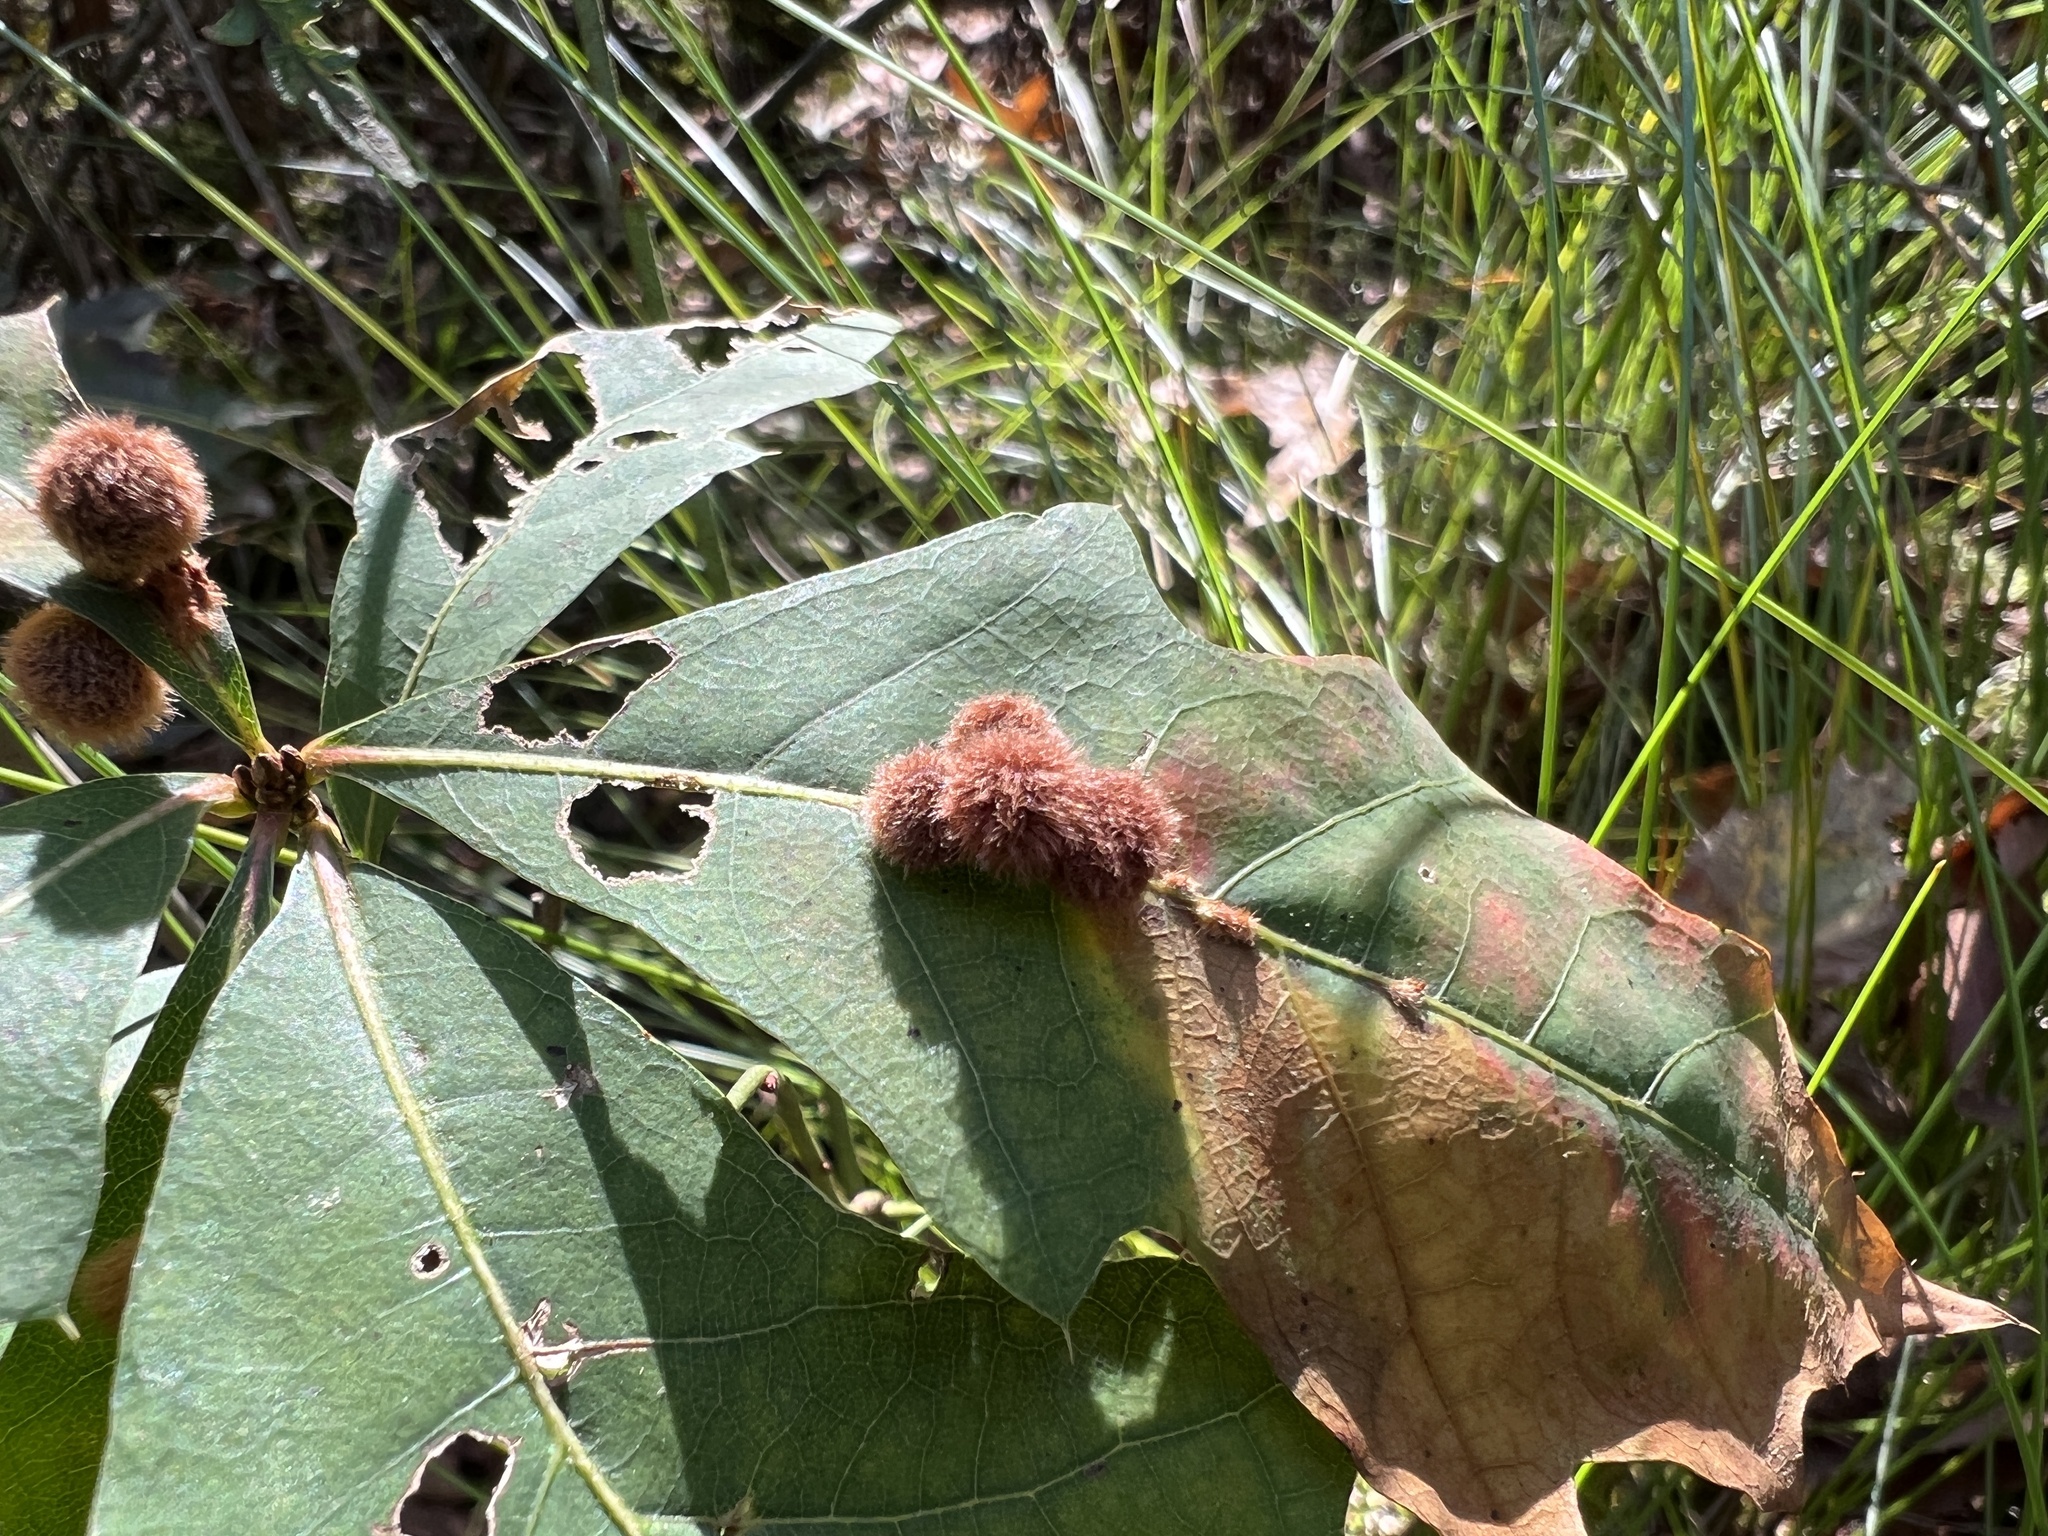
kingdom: Animalia
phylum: Arthropoda
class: Insecta
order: Hymenoptera
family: Cynipidae
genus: Callirhytis
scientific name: Callirhytis
